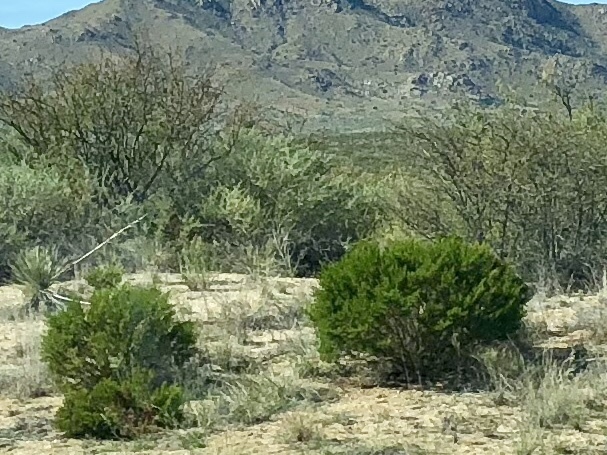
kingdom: Plantae
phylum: Tracheophyta
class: Magnoliopsida
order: Zygophyllales
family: Zygophyllaceae
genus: Larrea
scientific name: Larrea tridentata
